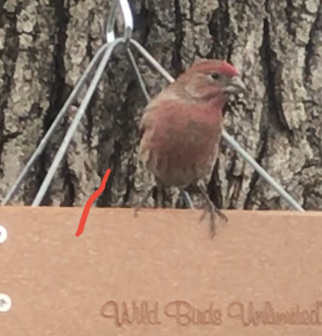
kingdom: Animalia
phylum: Chordata
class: Aves
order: Passeriformes
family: Fringillidae
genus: Haemorhous
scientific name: Haemorhous mexicanus
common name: House finch
